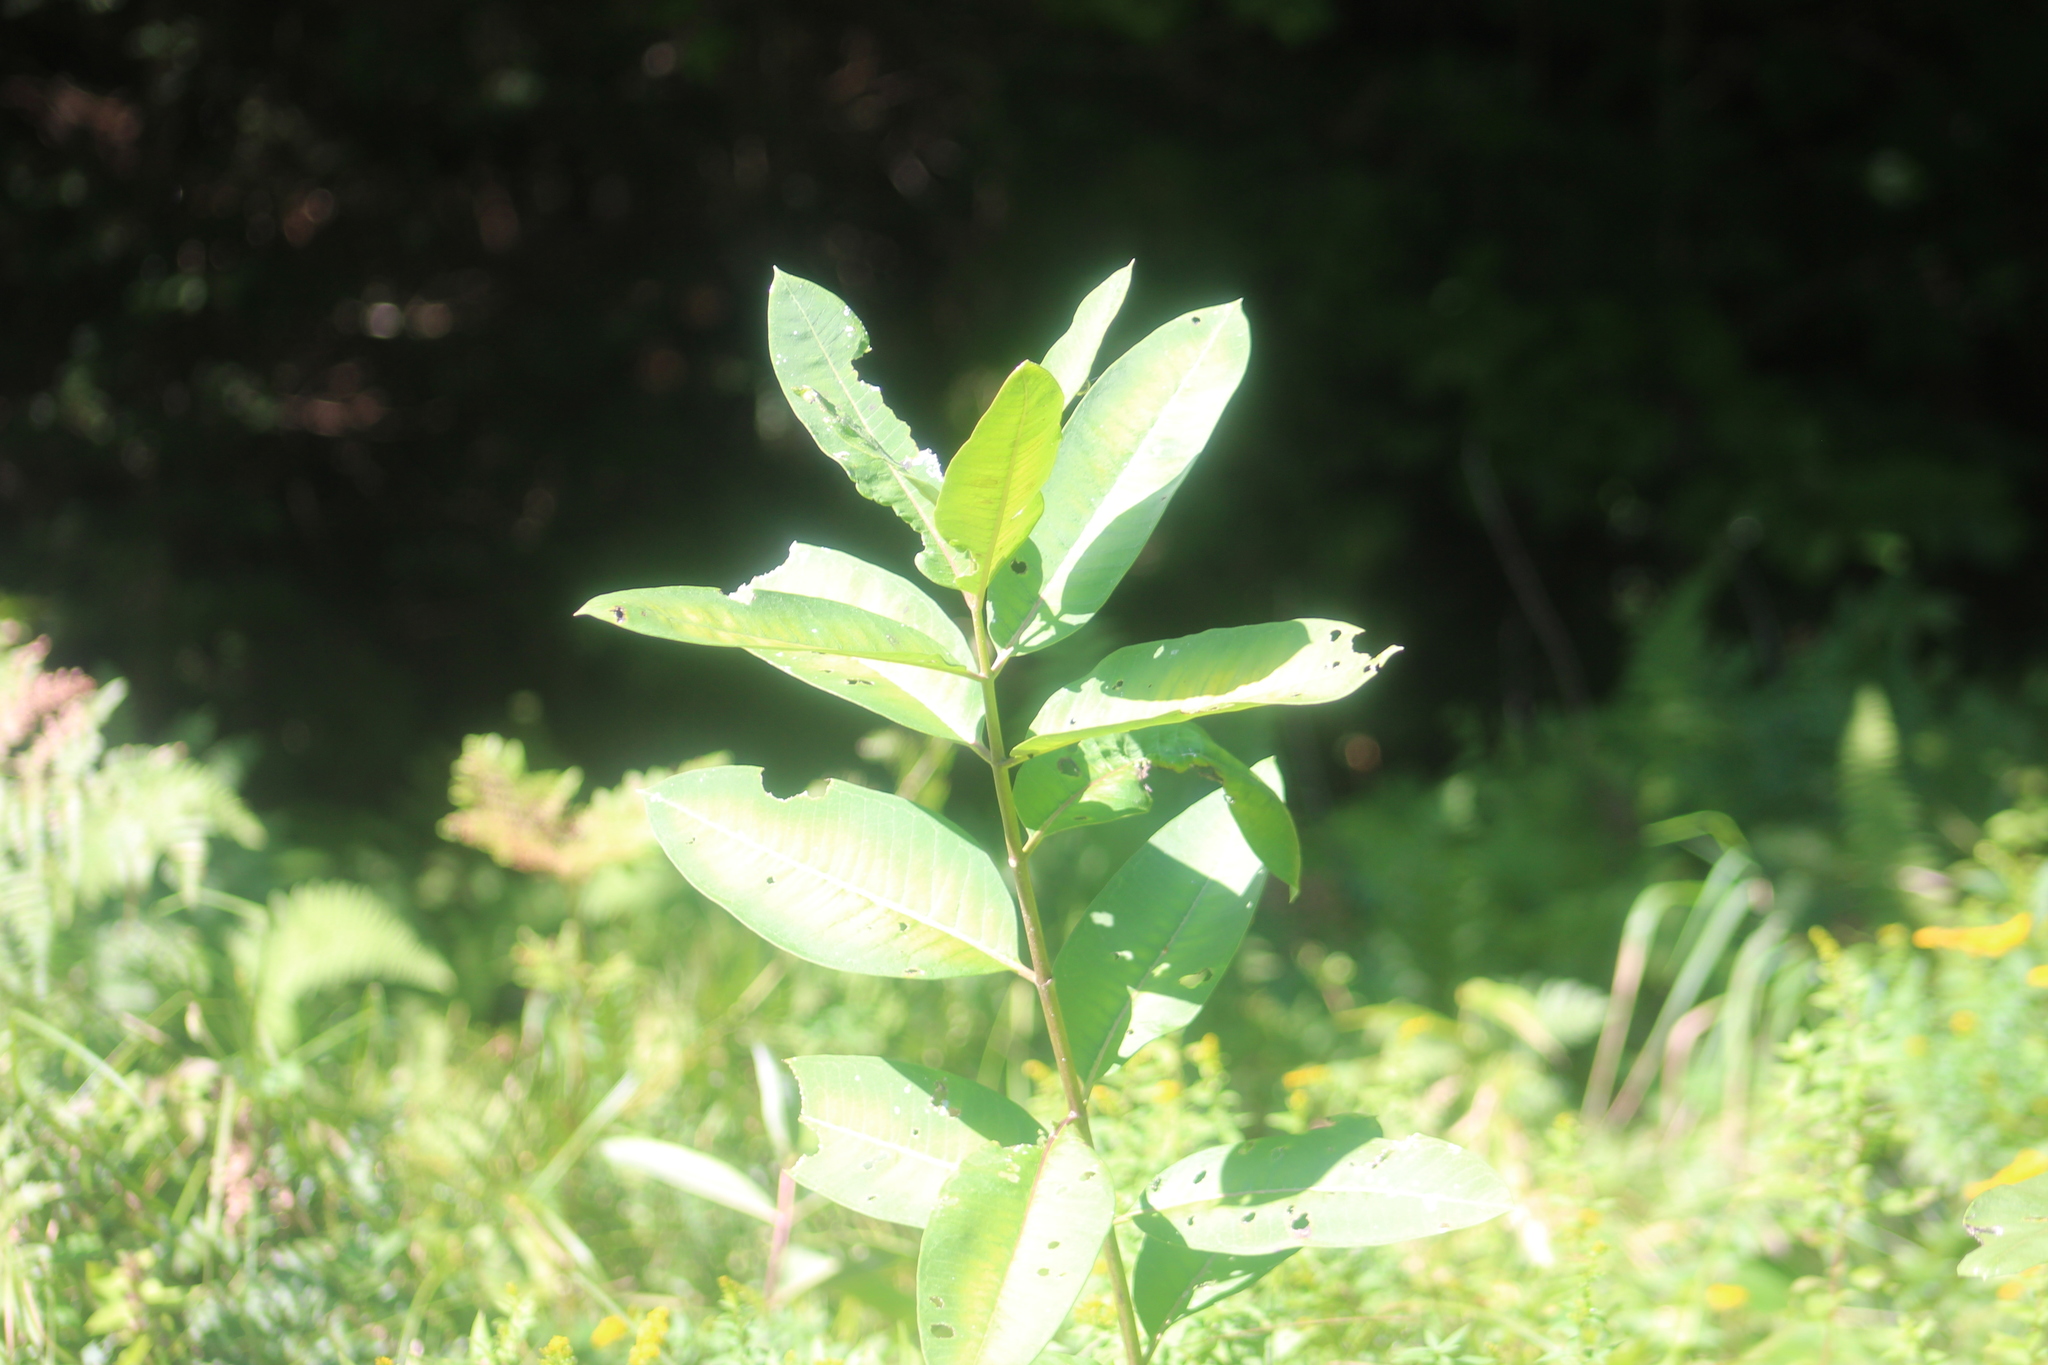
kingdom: Plantae
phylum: Tracheophyta
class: Magnoliopsida
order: Gentianales
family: Apocynaceae
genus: Asclepias
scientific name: Asclepias syriaca
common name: Common milkweed
